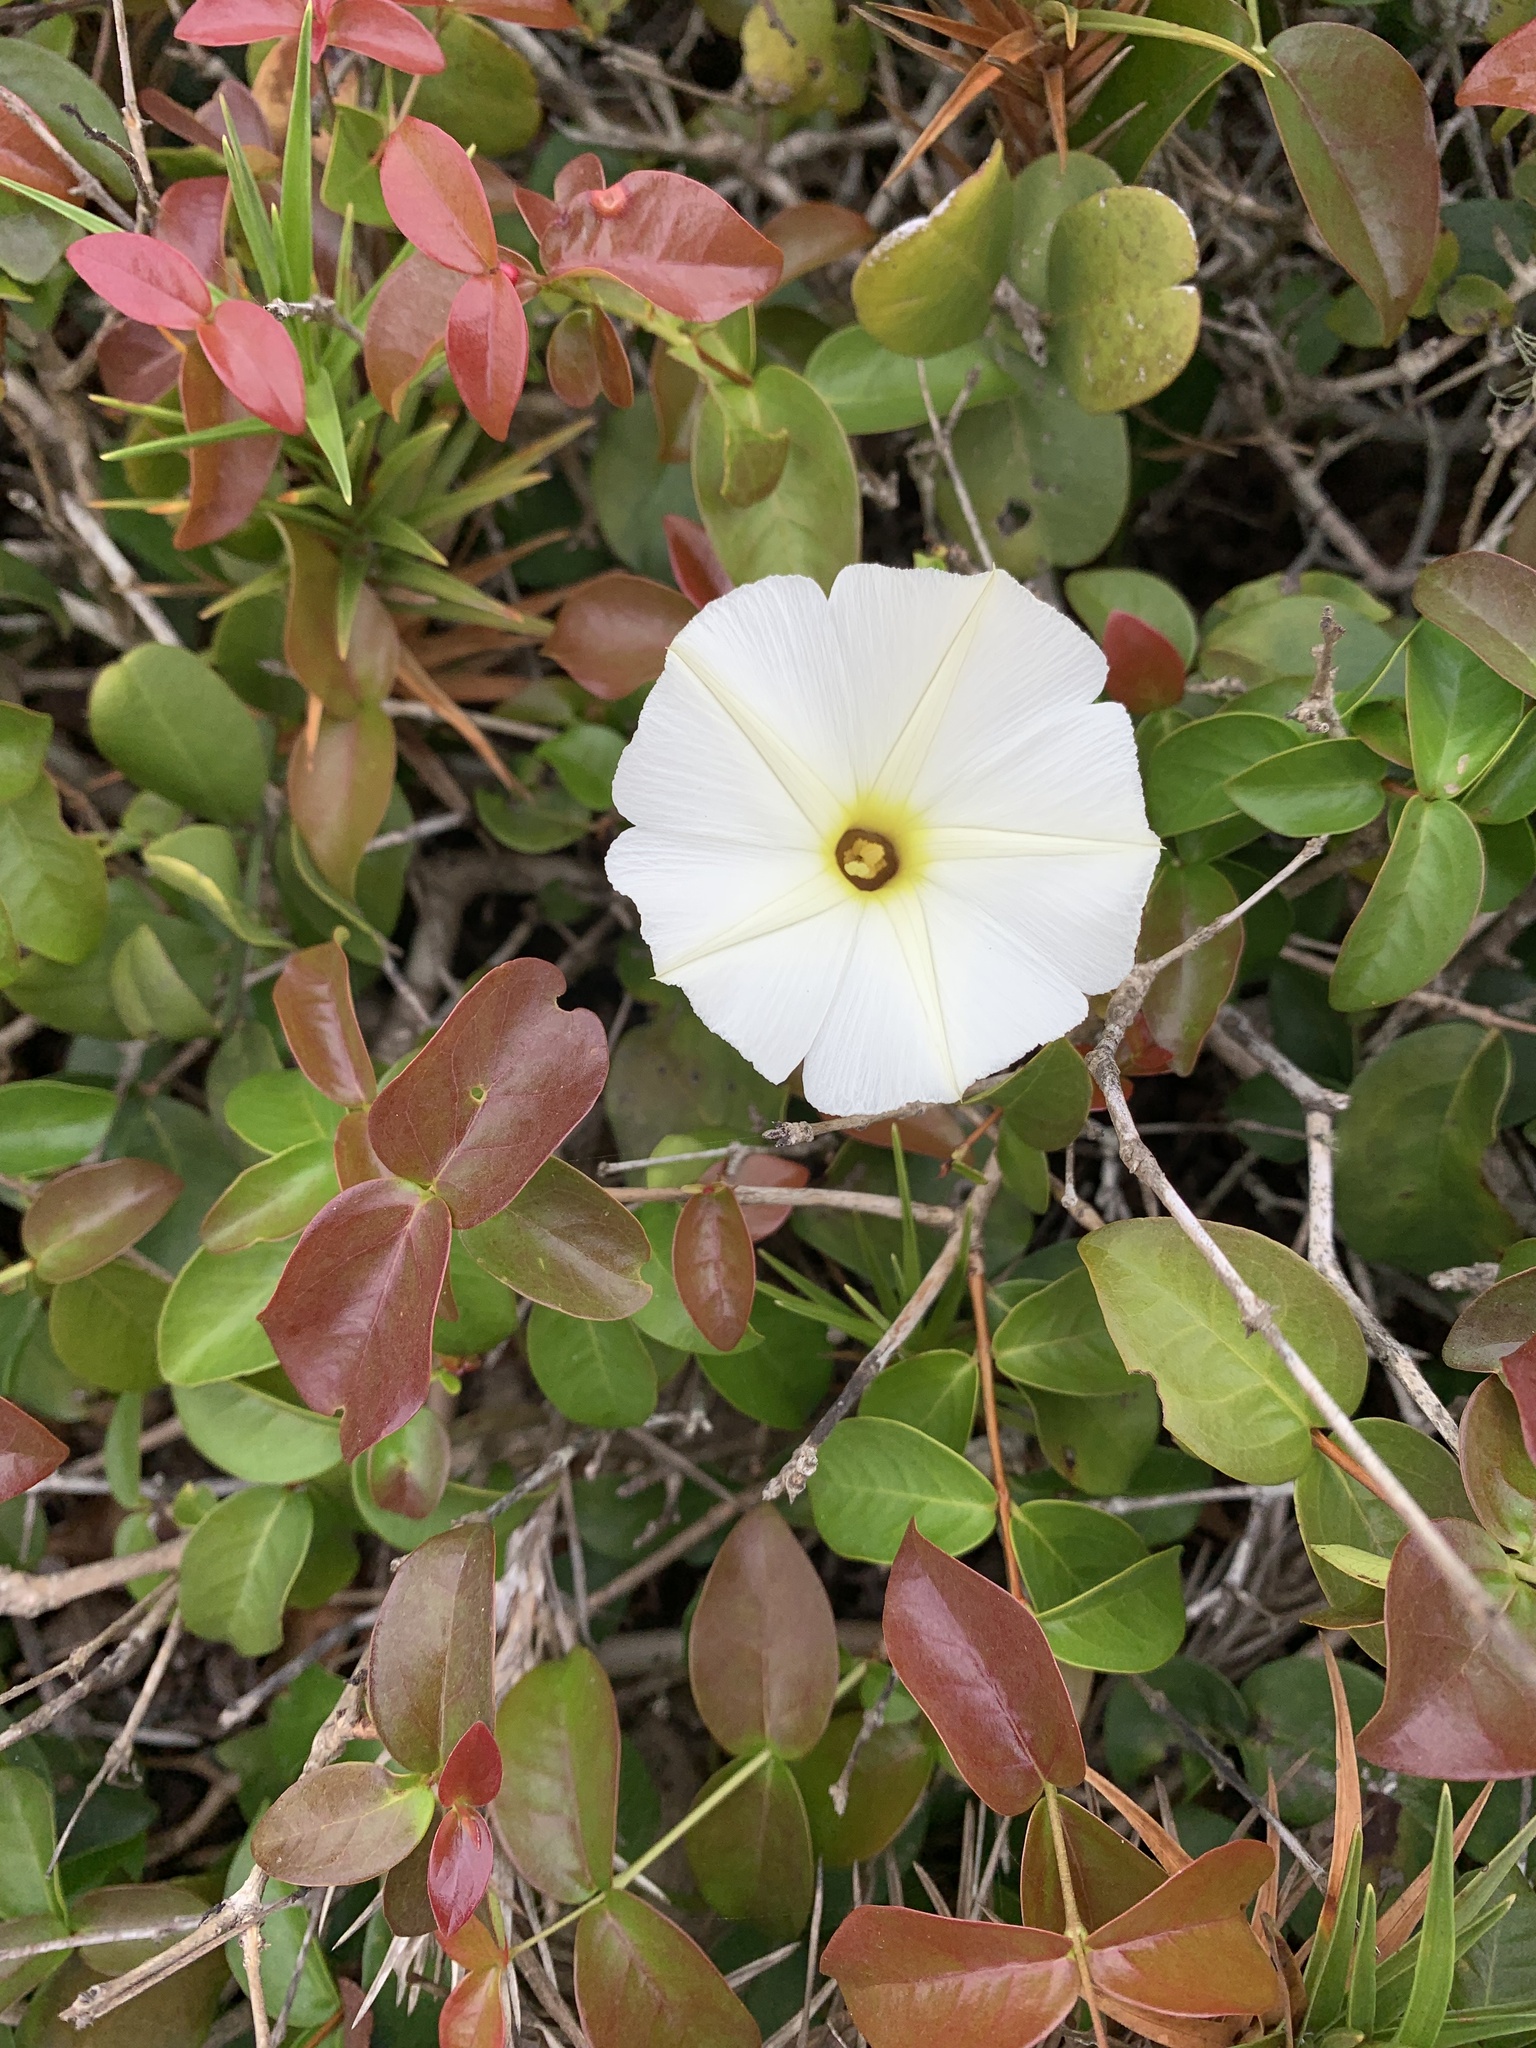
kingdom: Plantae
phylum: Tracheophyta
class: Magnoliopsida
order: Solanales
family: Convolvulaceae
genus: Ipomoea
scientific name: Ipomoea imperati
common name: Fiddle-leaf morning-glory
